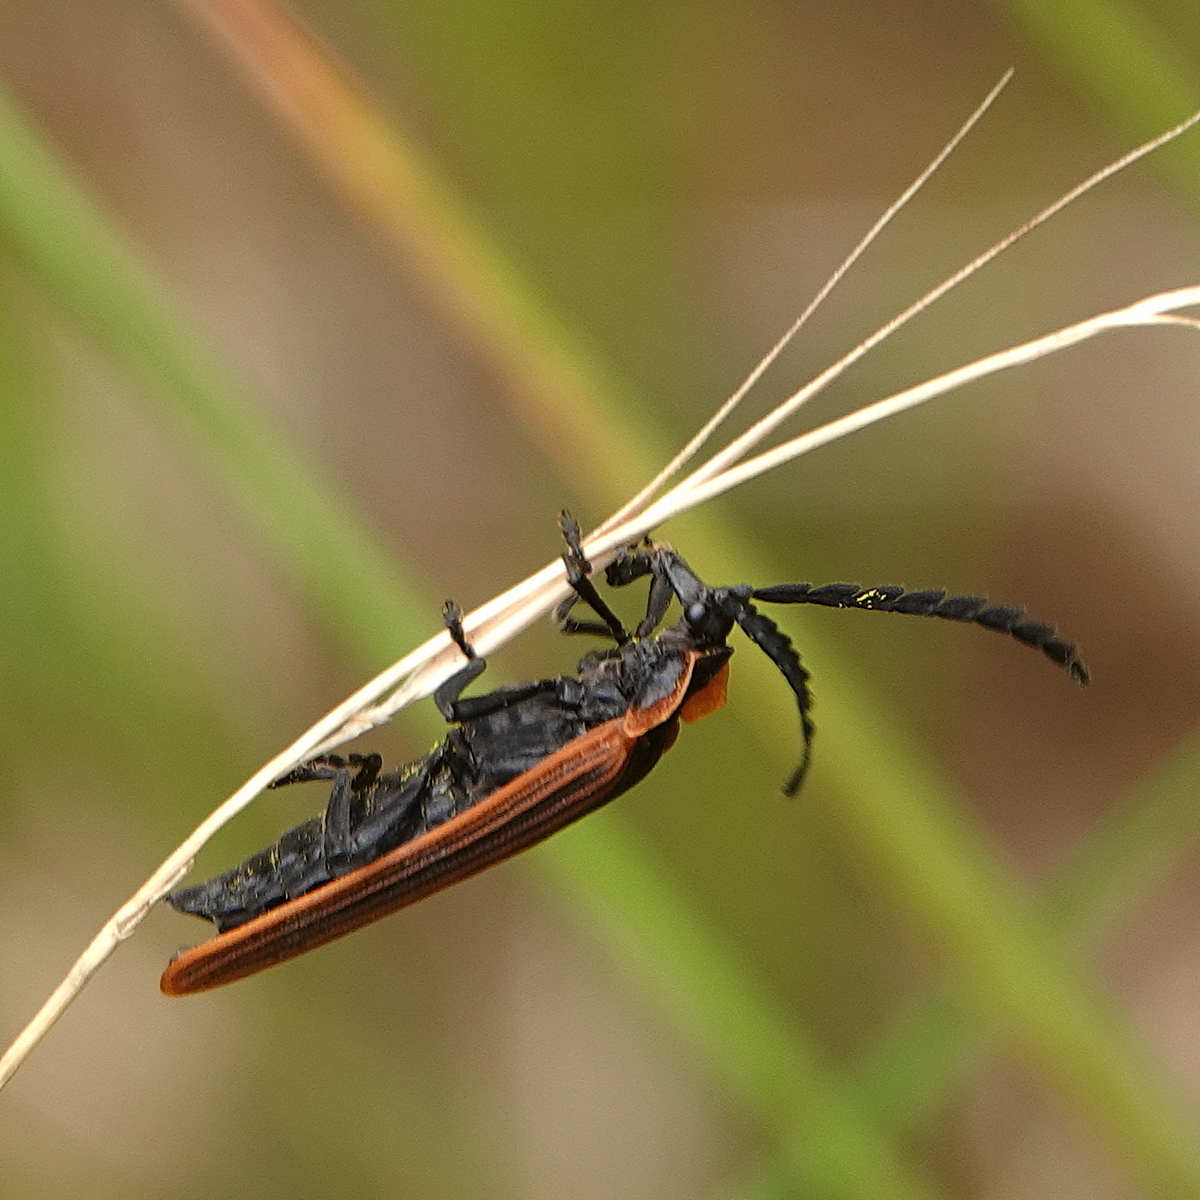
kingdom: Animalia
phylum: Arthropoda
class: Insecta
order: Coleoptera
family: Lycidae
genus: Metriorrhynchus
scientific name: Metriorrhynchus
